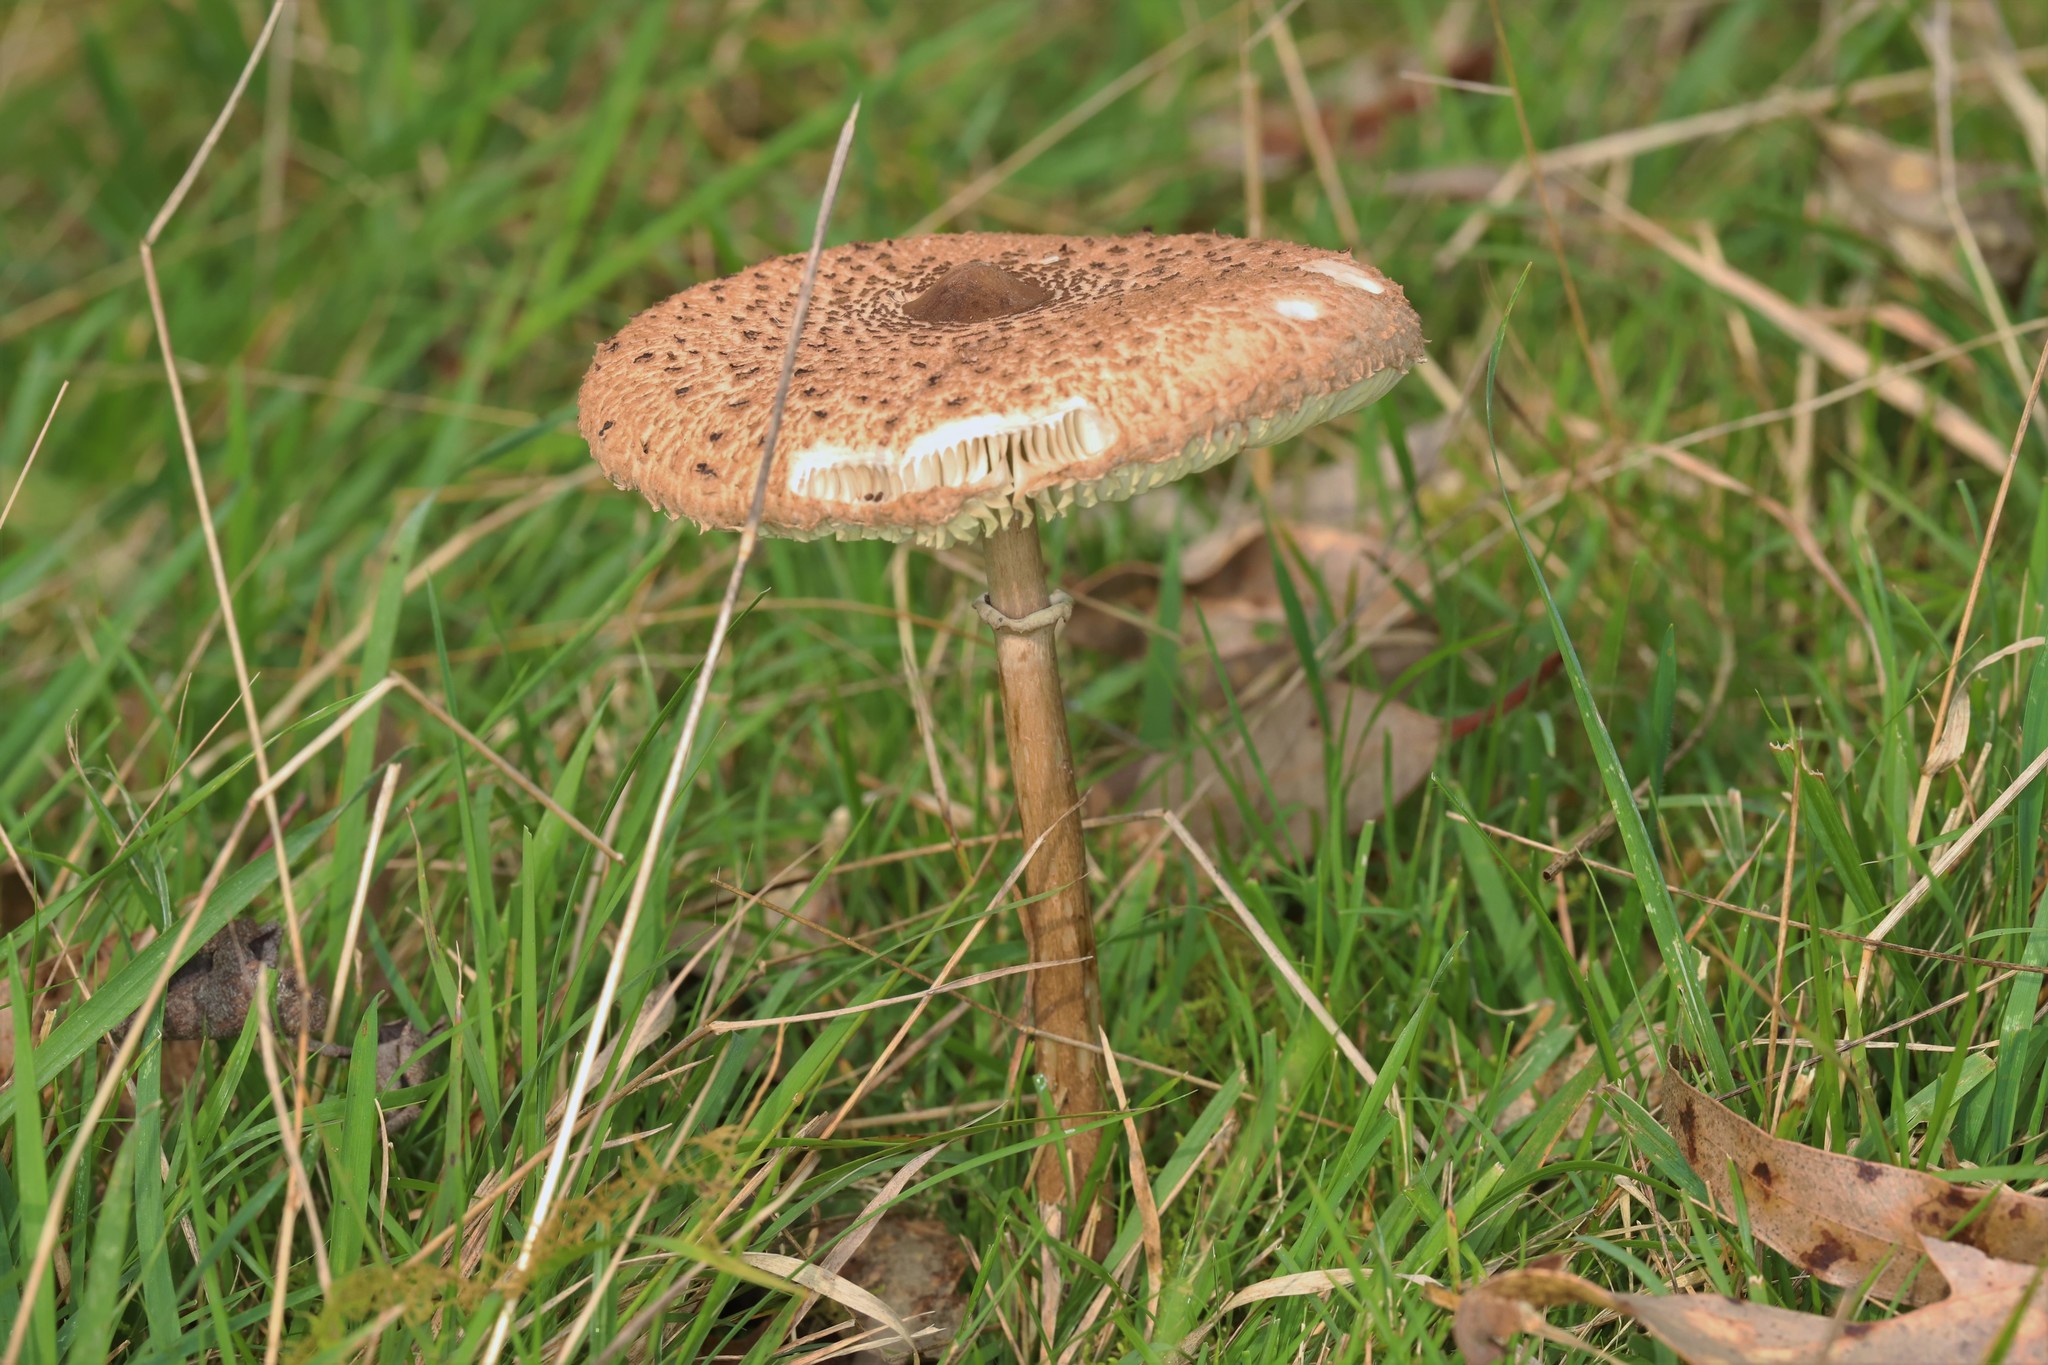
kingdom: Fungi
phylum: Basidiomycota
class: Agaricomycetes
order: Agaricales
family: Agaricaceae
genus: Macrolepiota
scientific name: Macrolepiota clelandii
